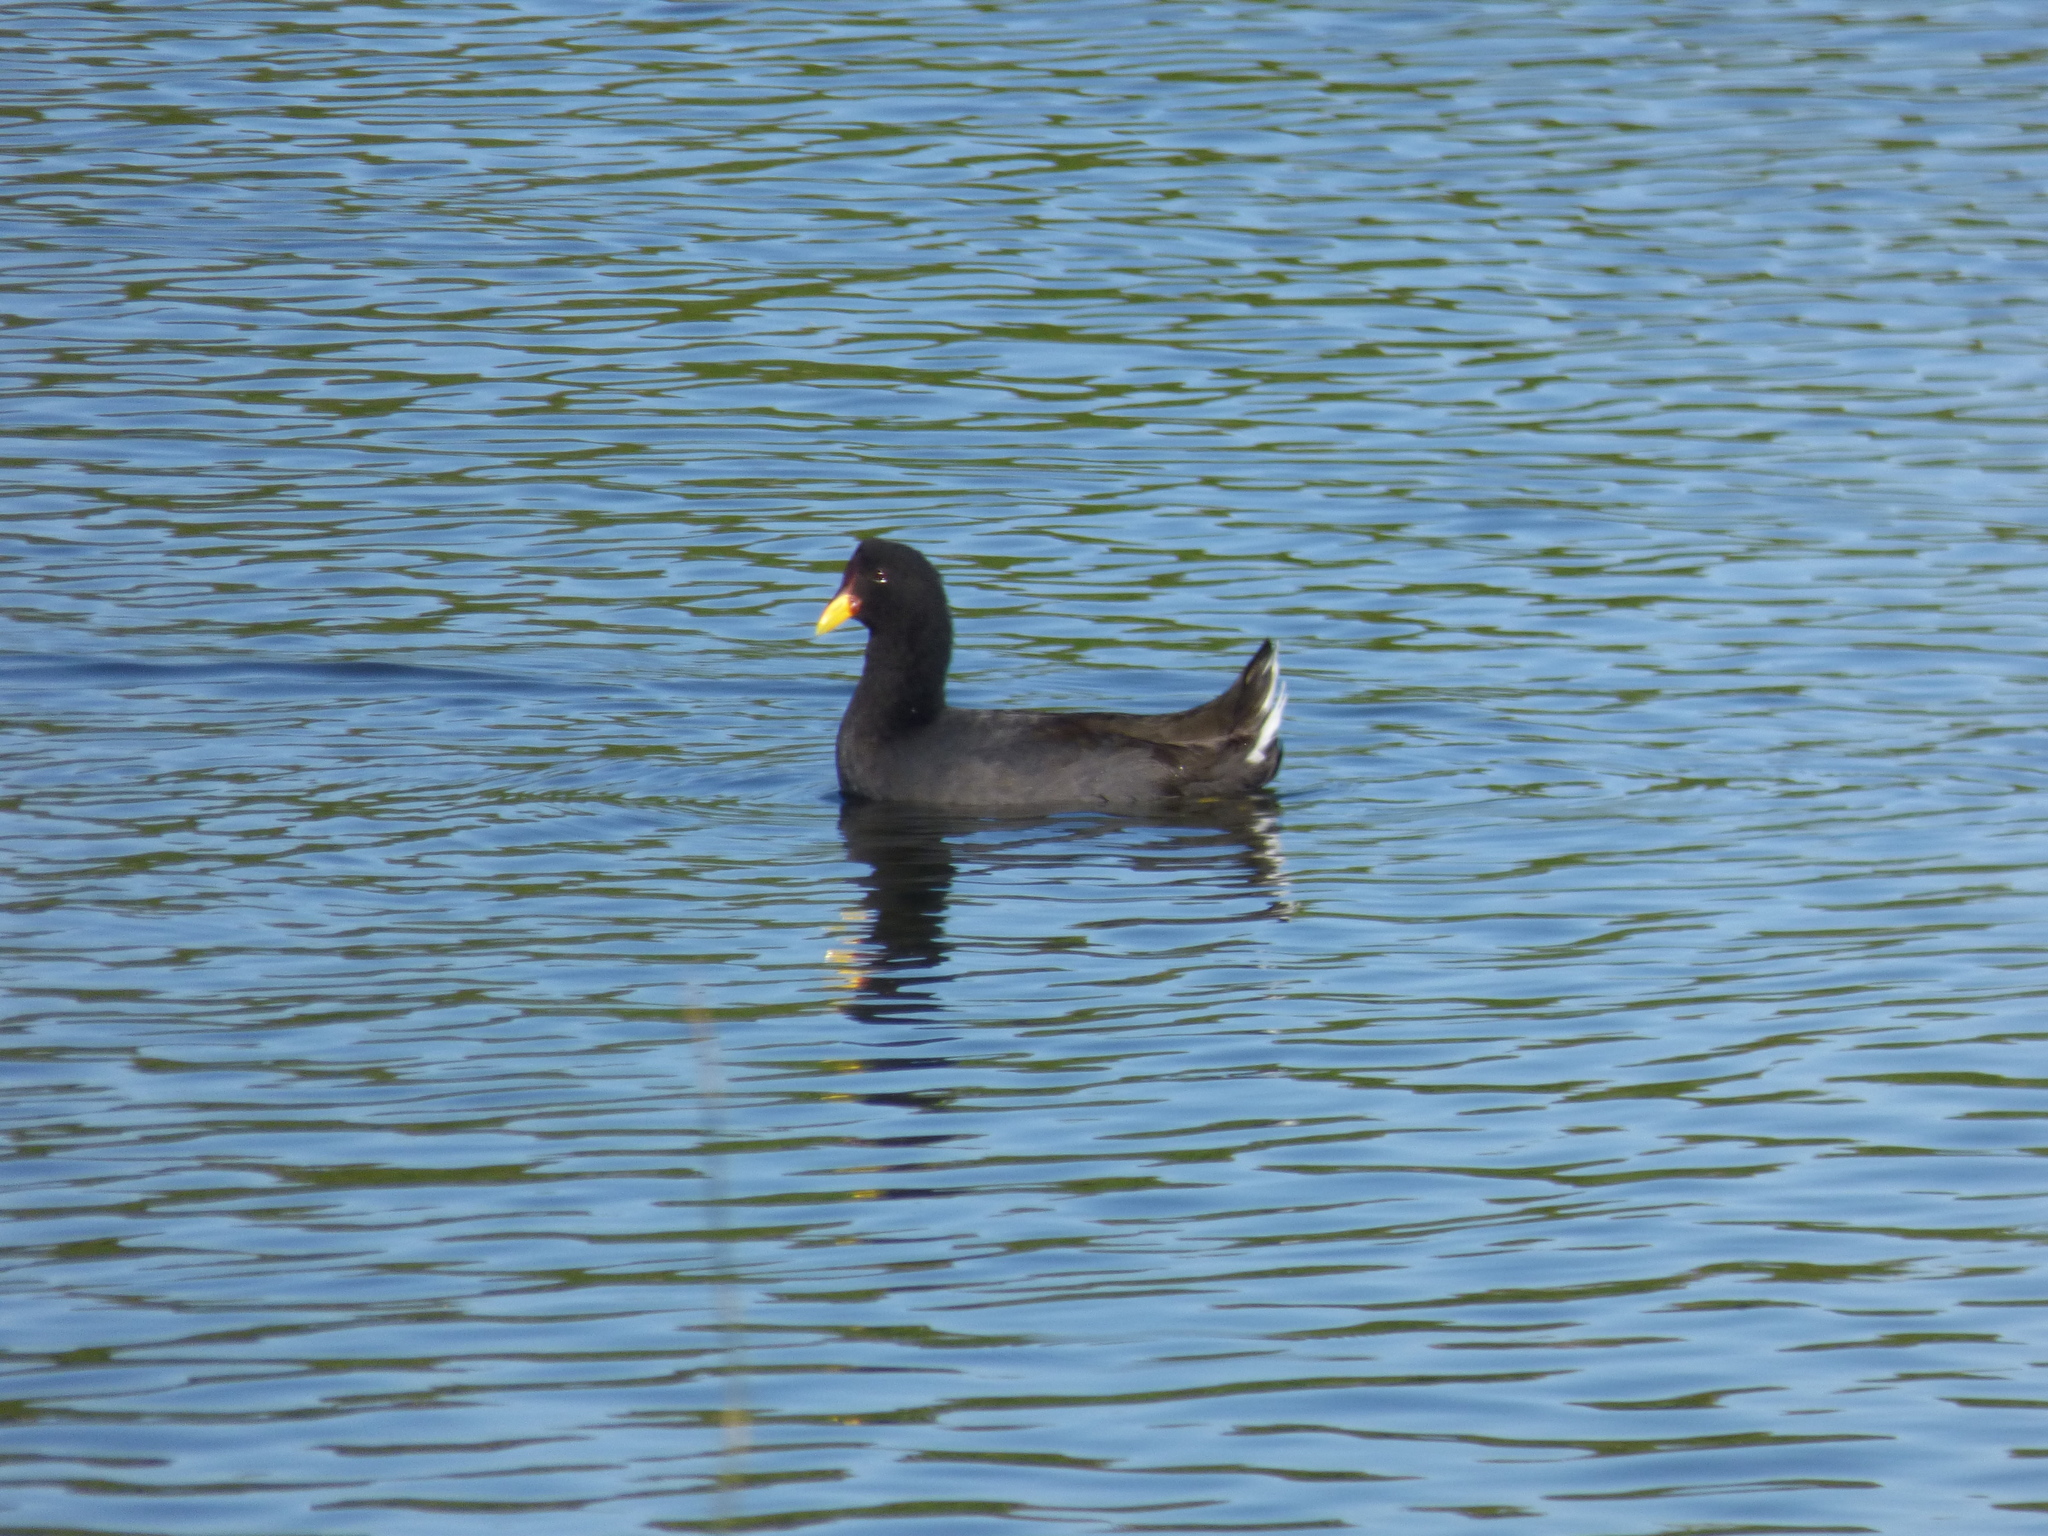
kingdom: Animalia
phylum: Chordata
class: Aves
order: Gruiformes
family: Rallidae
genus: Fulica
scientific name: Fulica rufifrons
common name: Red-fronted coot
